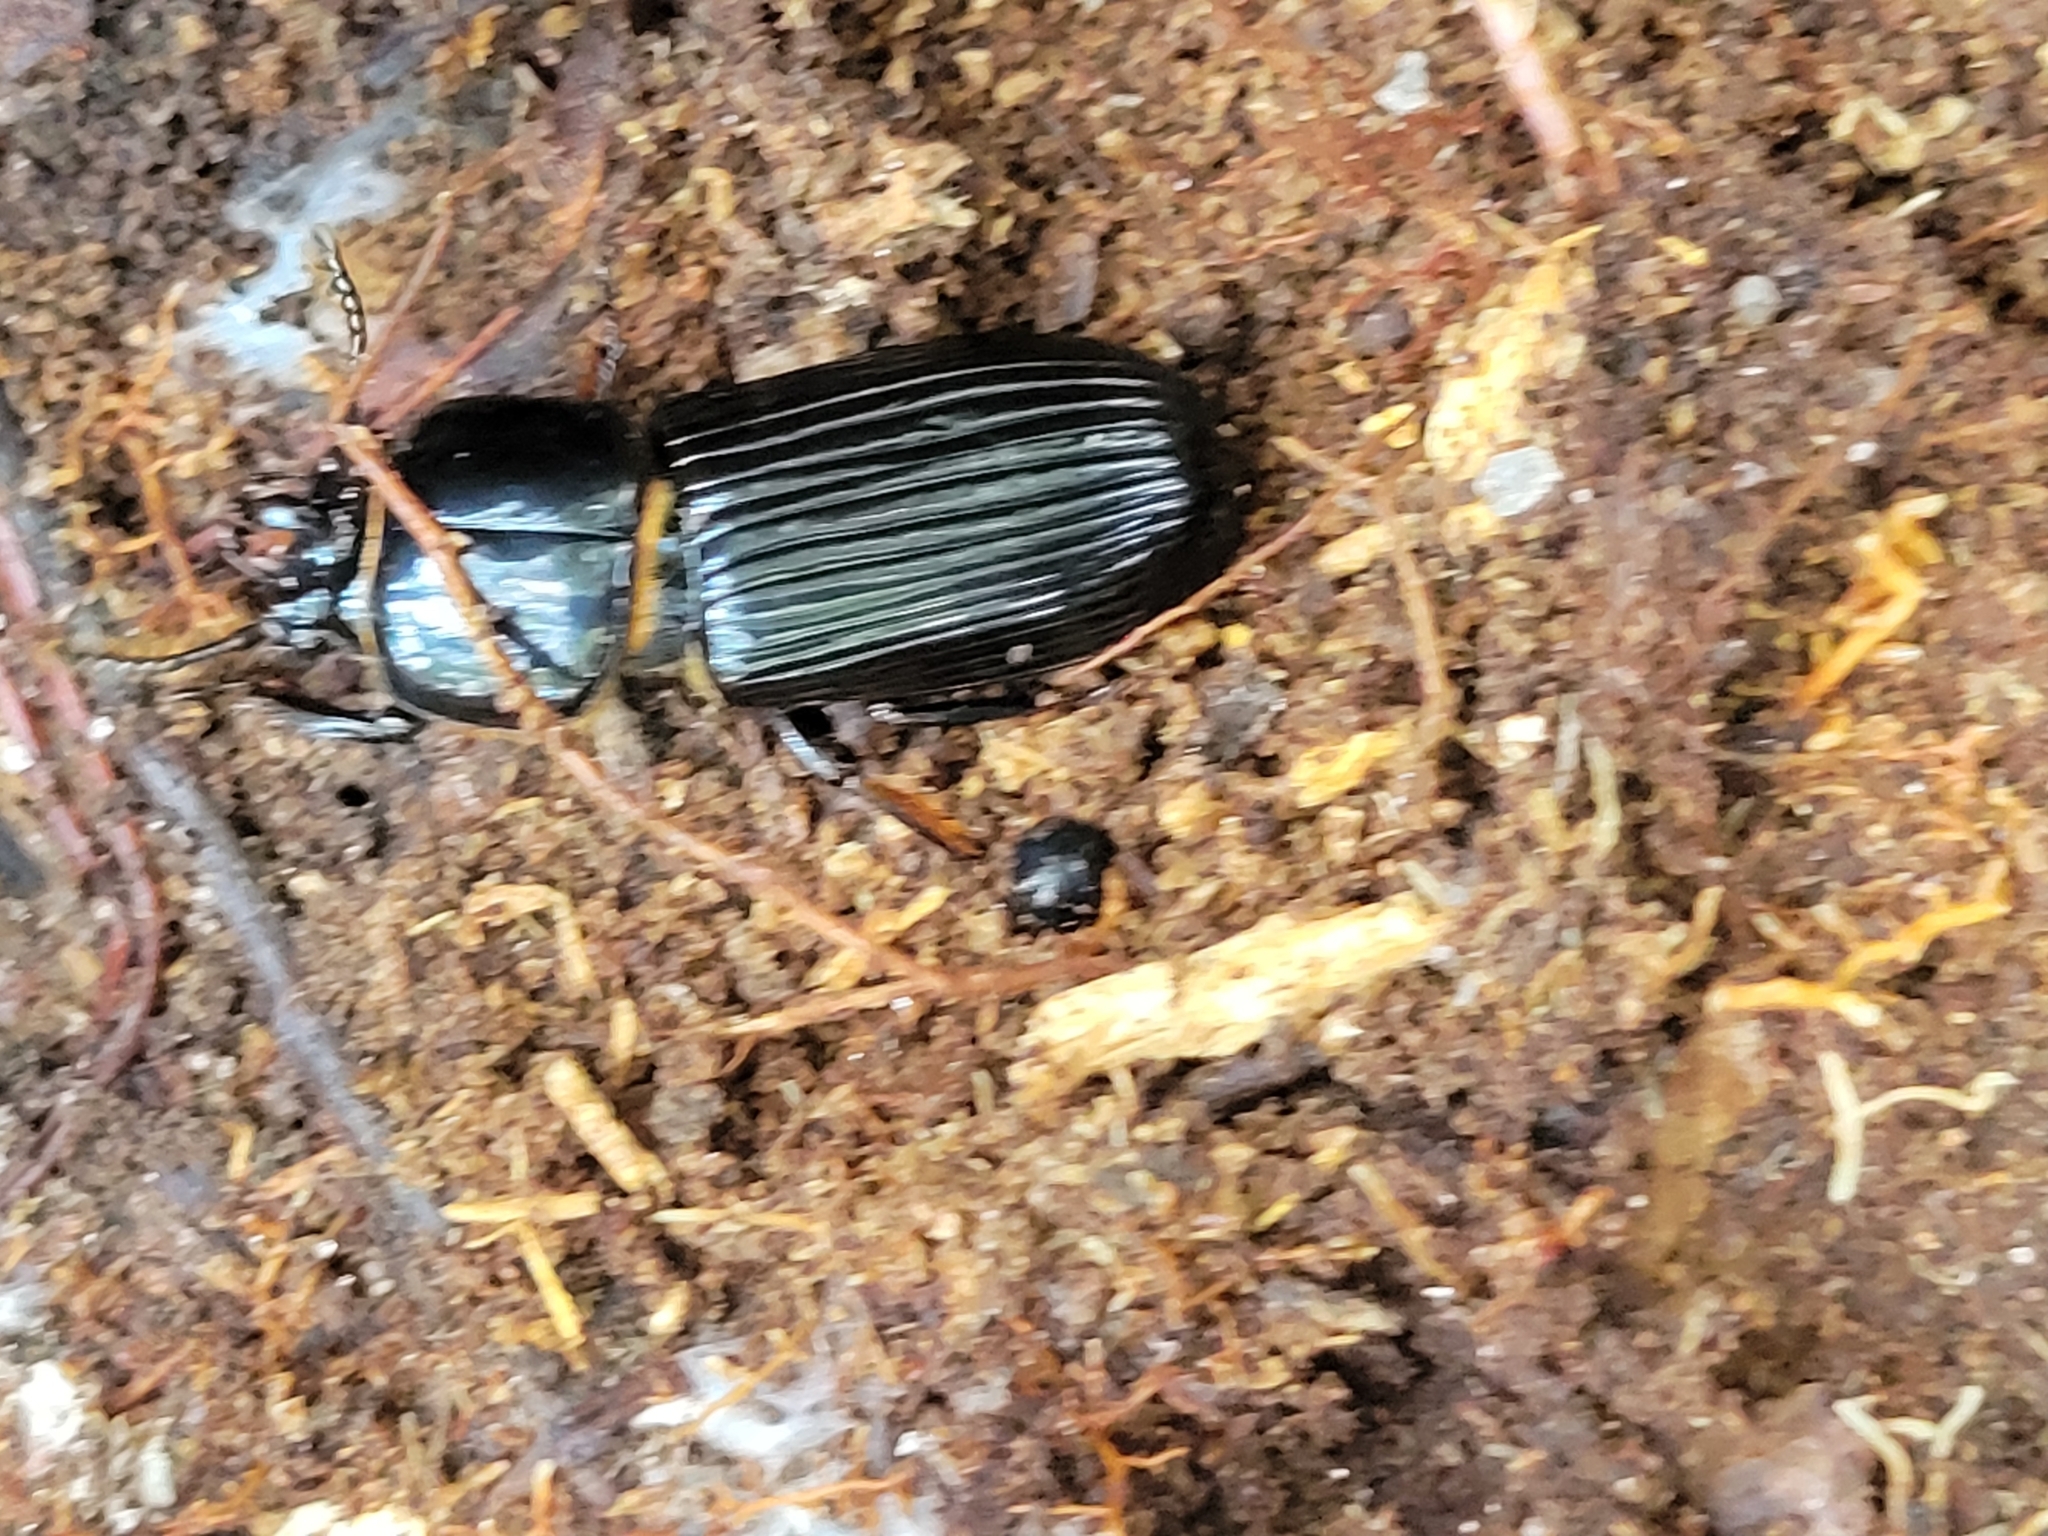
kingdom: Animalia
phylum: Arthropoda
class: Insecta
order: Coleoptera
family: Passalidae
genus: Odontotaenius
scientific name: Odontotaenius disjunctus
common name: Patent leather beetle
